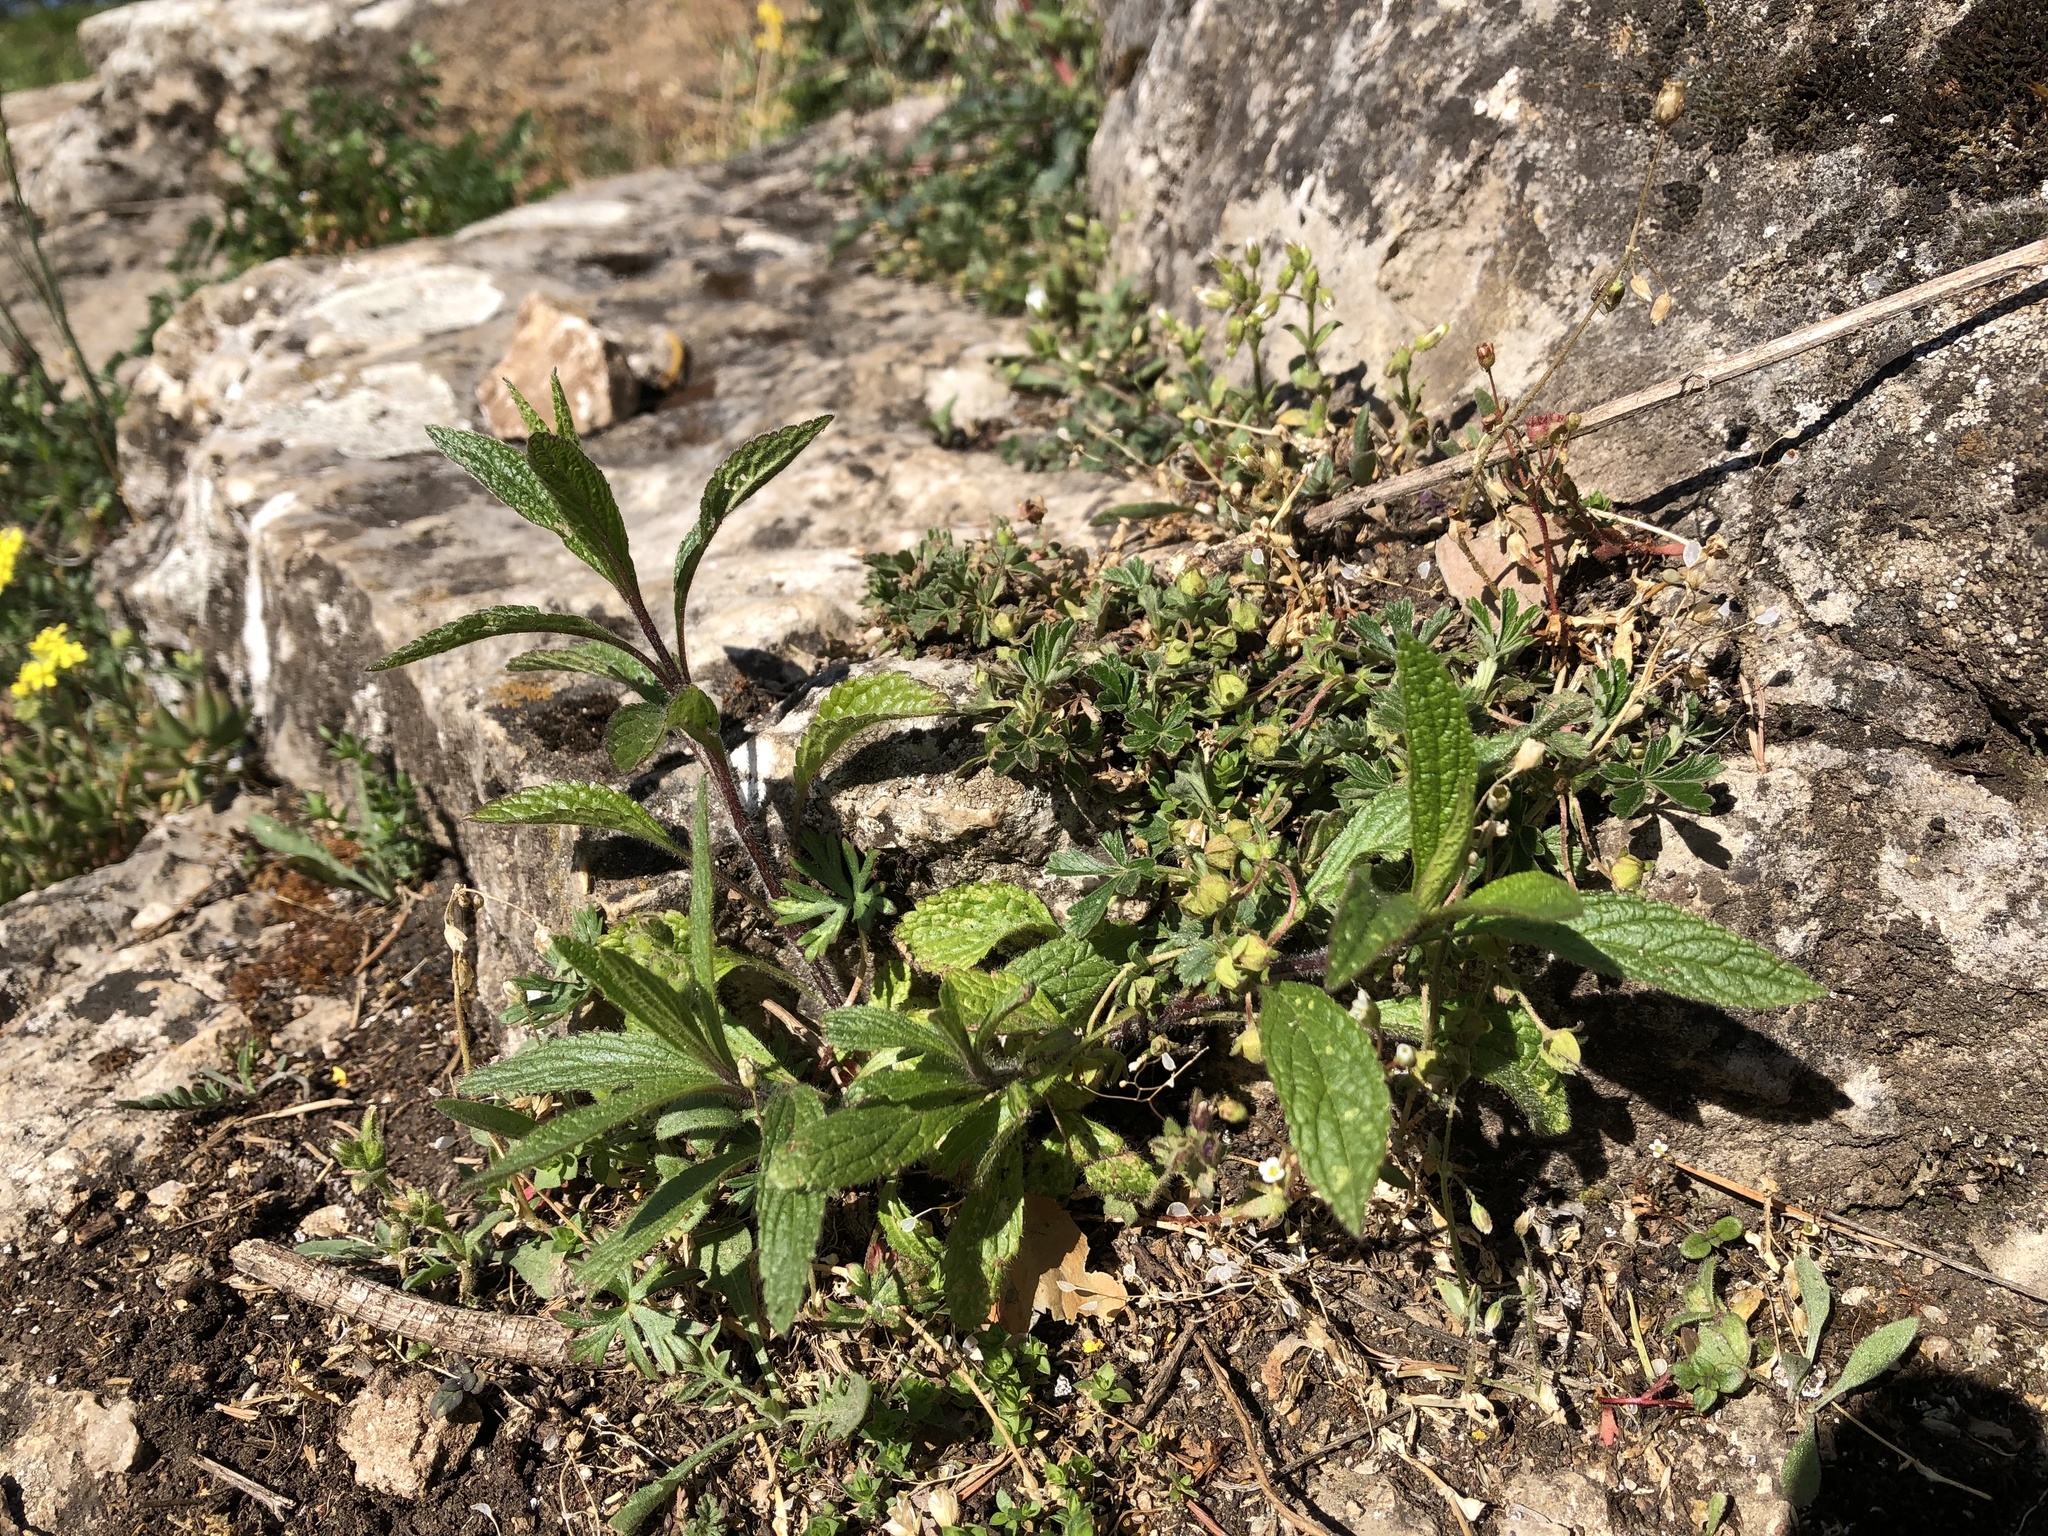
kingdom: Plantae
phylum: Tracheophyta
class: Magnoliopsida
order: Lamiales
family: Lamiaceae
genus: Stachys
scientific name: Stachys recta
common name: Perennial yellow-woundwort
